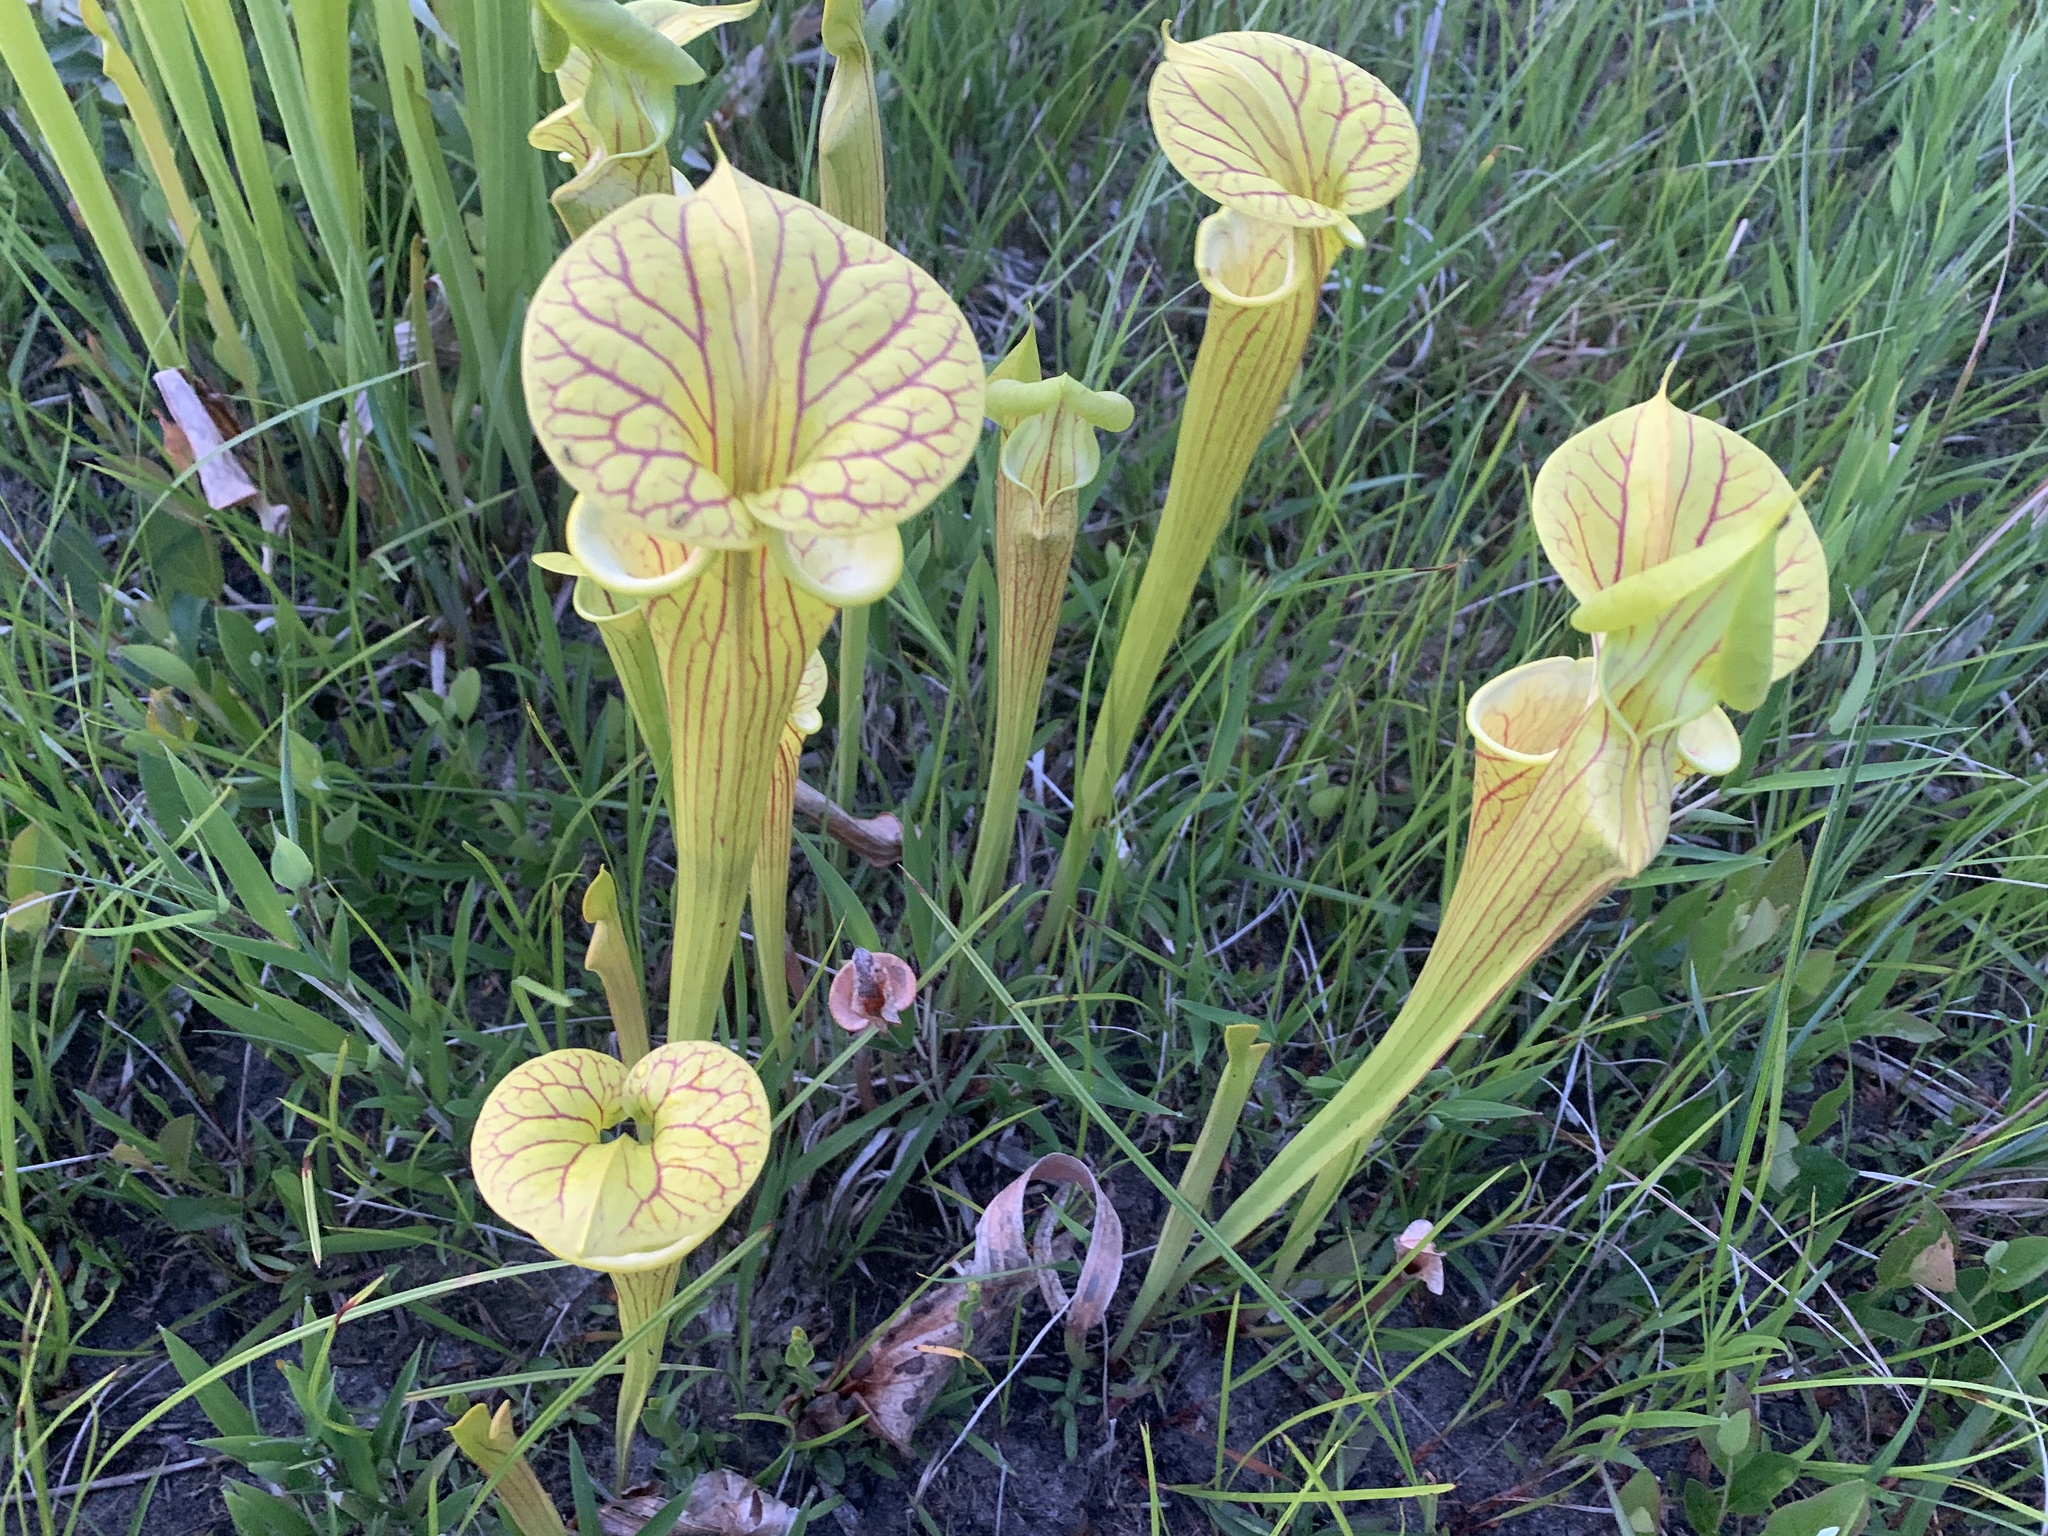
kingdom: Plantae
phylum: Tracheophyta
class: Magnoliopsida
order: Ericales
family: Sarraceniaceae
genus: Sarracenia
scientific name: Sarracenia flava
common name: Trumpets
